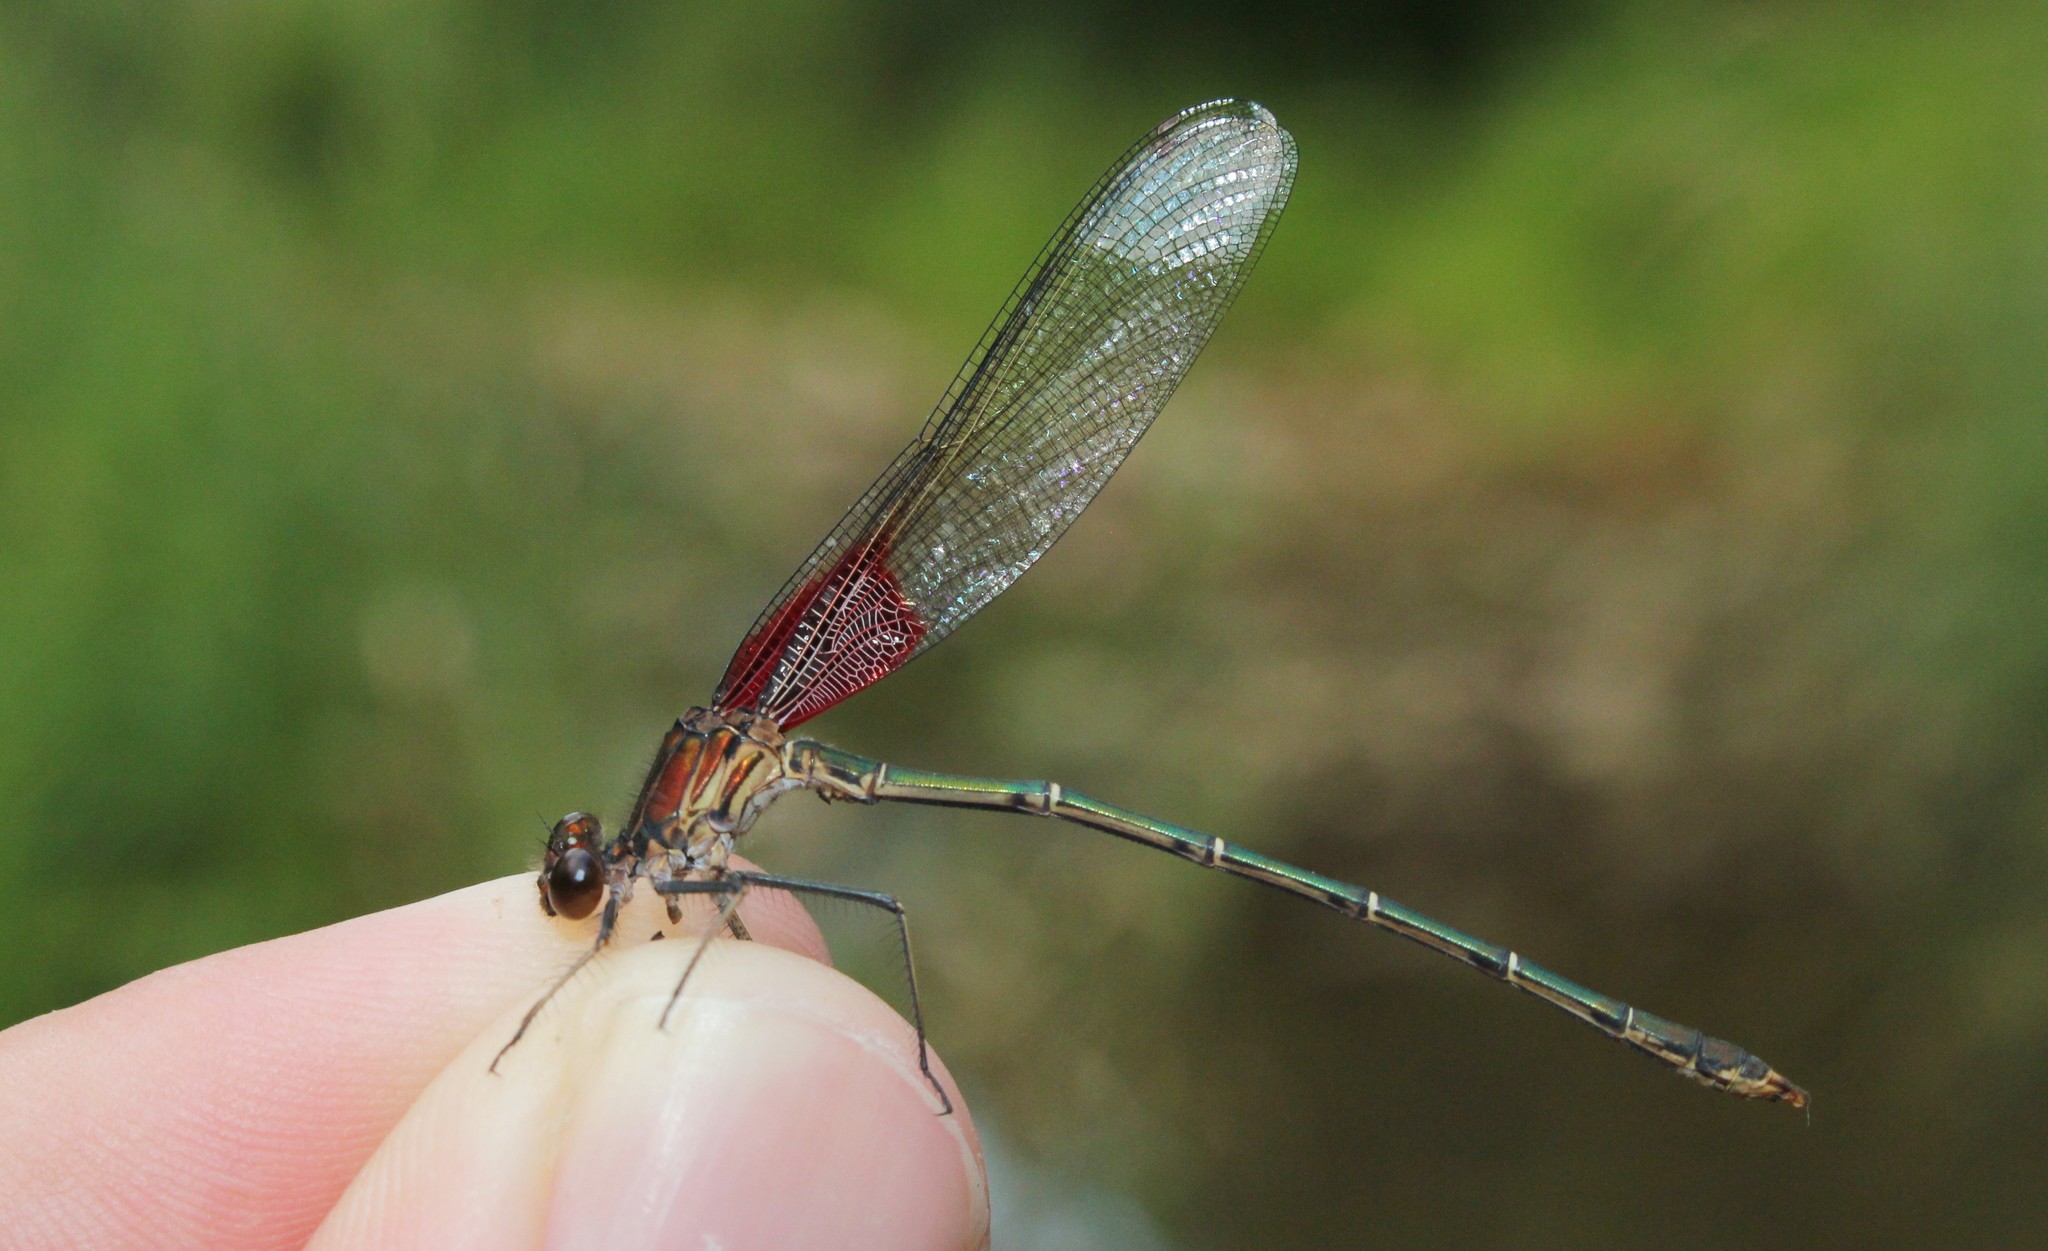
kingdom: Animalia
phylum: Arthropoda
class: Insecta
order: Odonata
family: Calopterygidae
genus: Hetaerina
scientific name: Hetaerina americana
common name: American rubyspot
